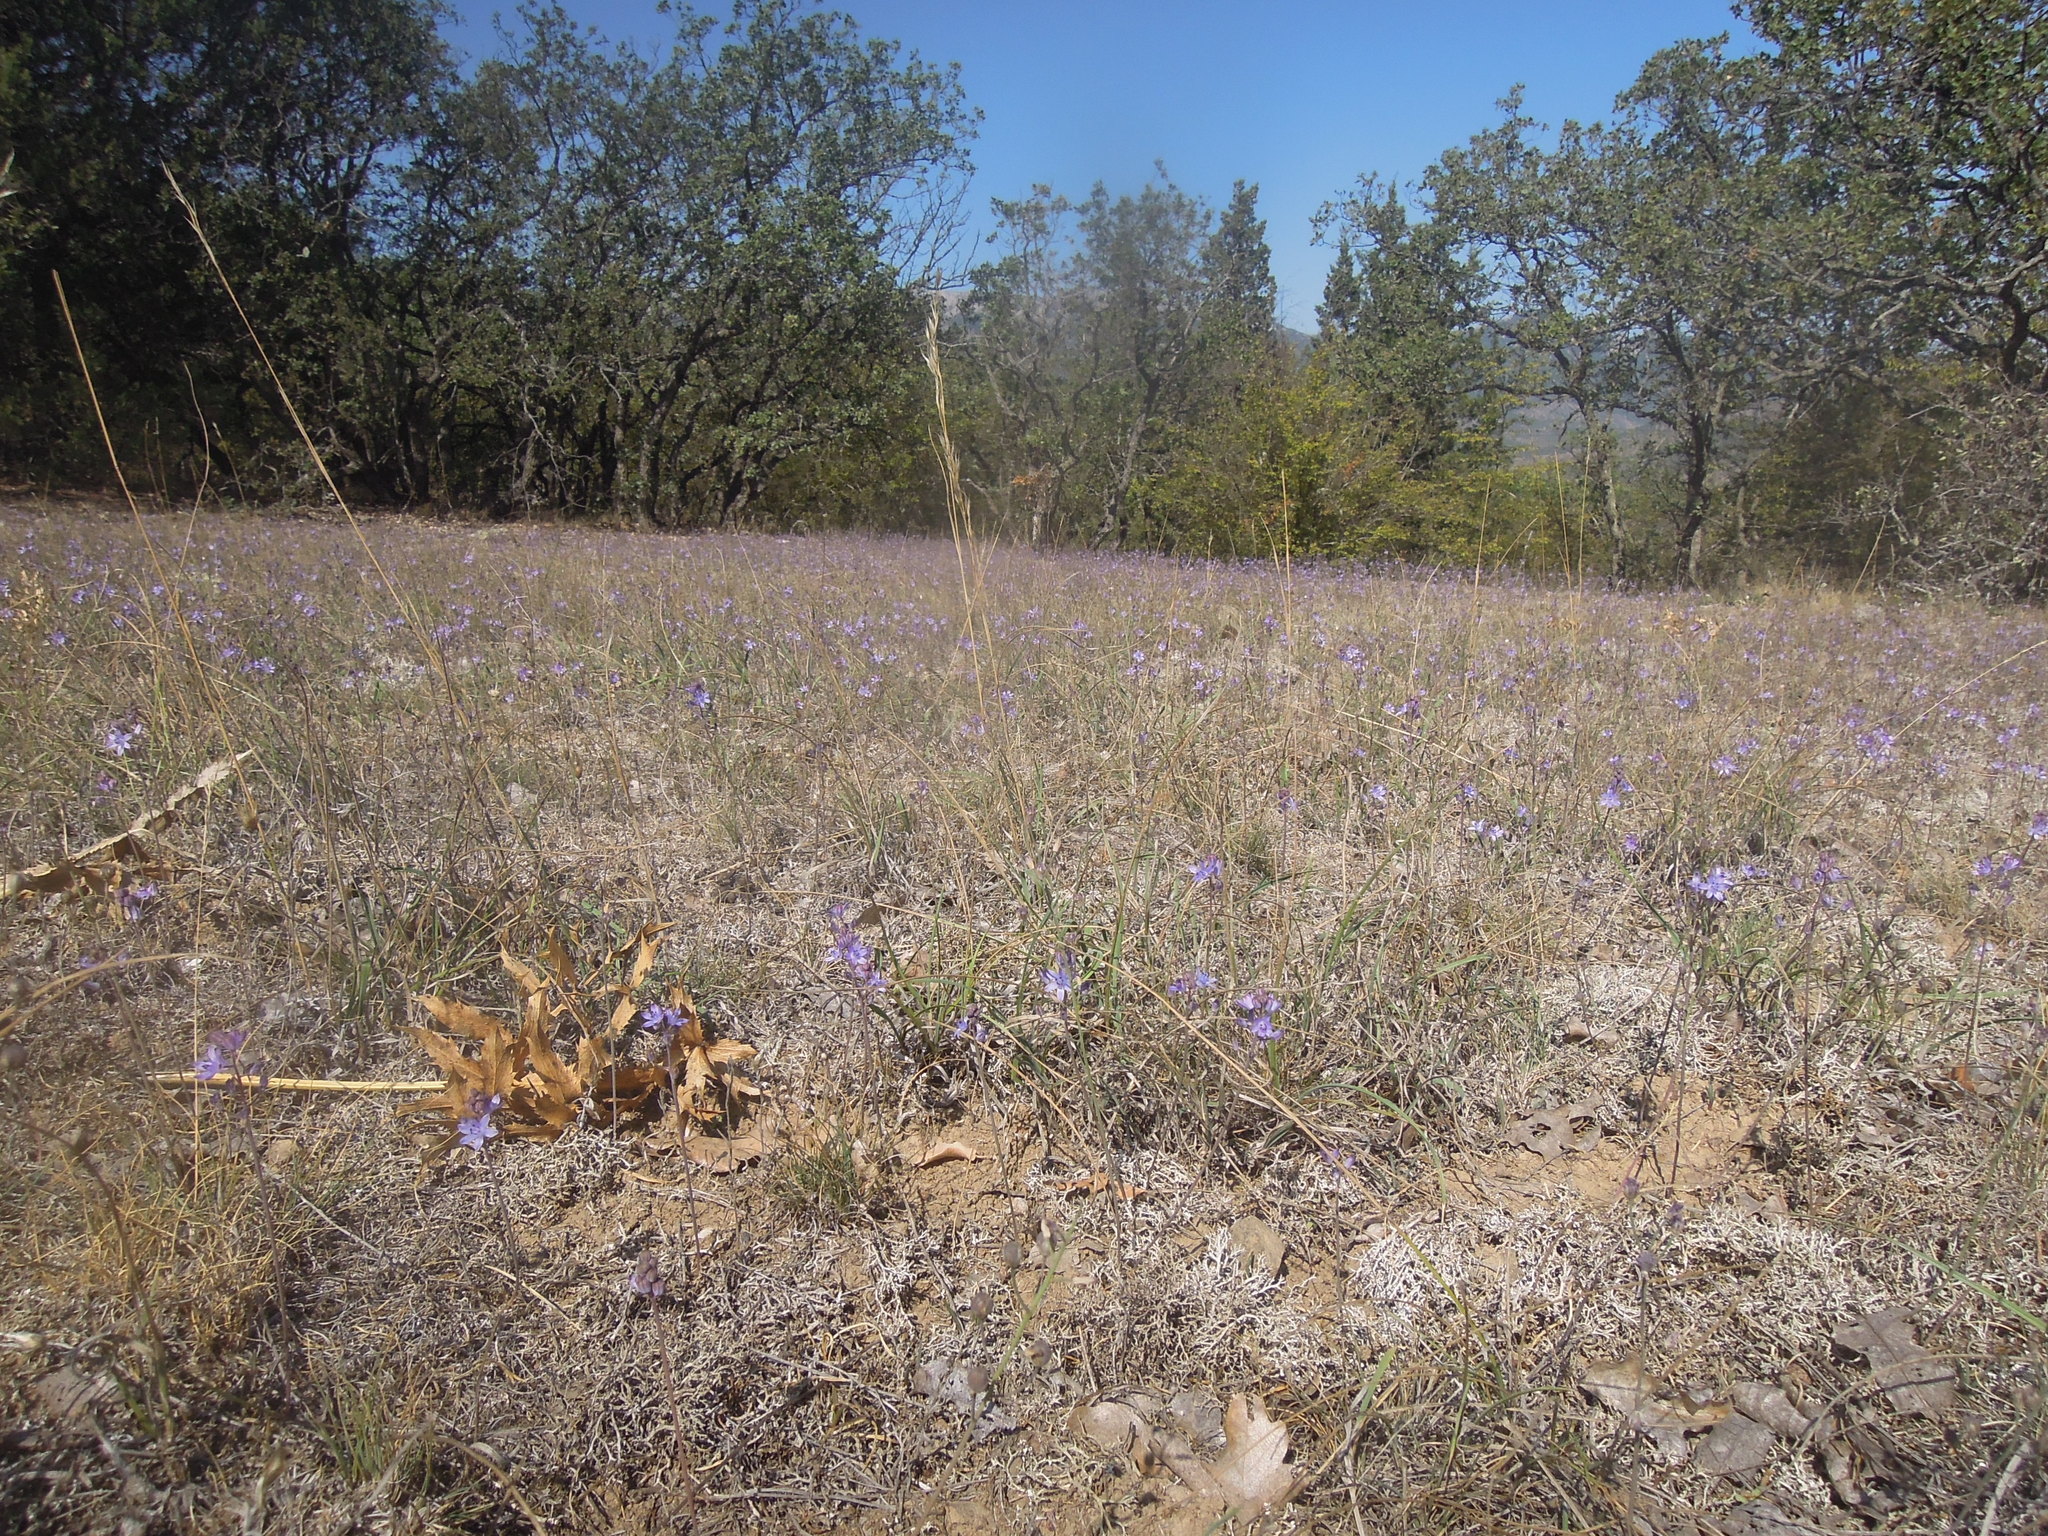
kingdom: Plantae
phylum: Tracheophyta
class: Liliopsida
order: Asparagales
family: Asparagaceae
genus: Prospero
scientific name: Prospero autumnale
